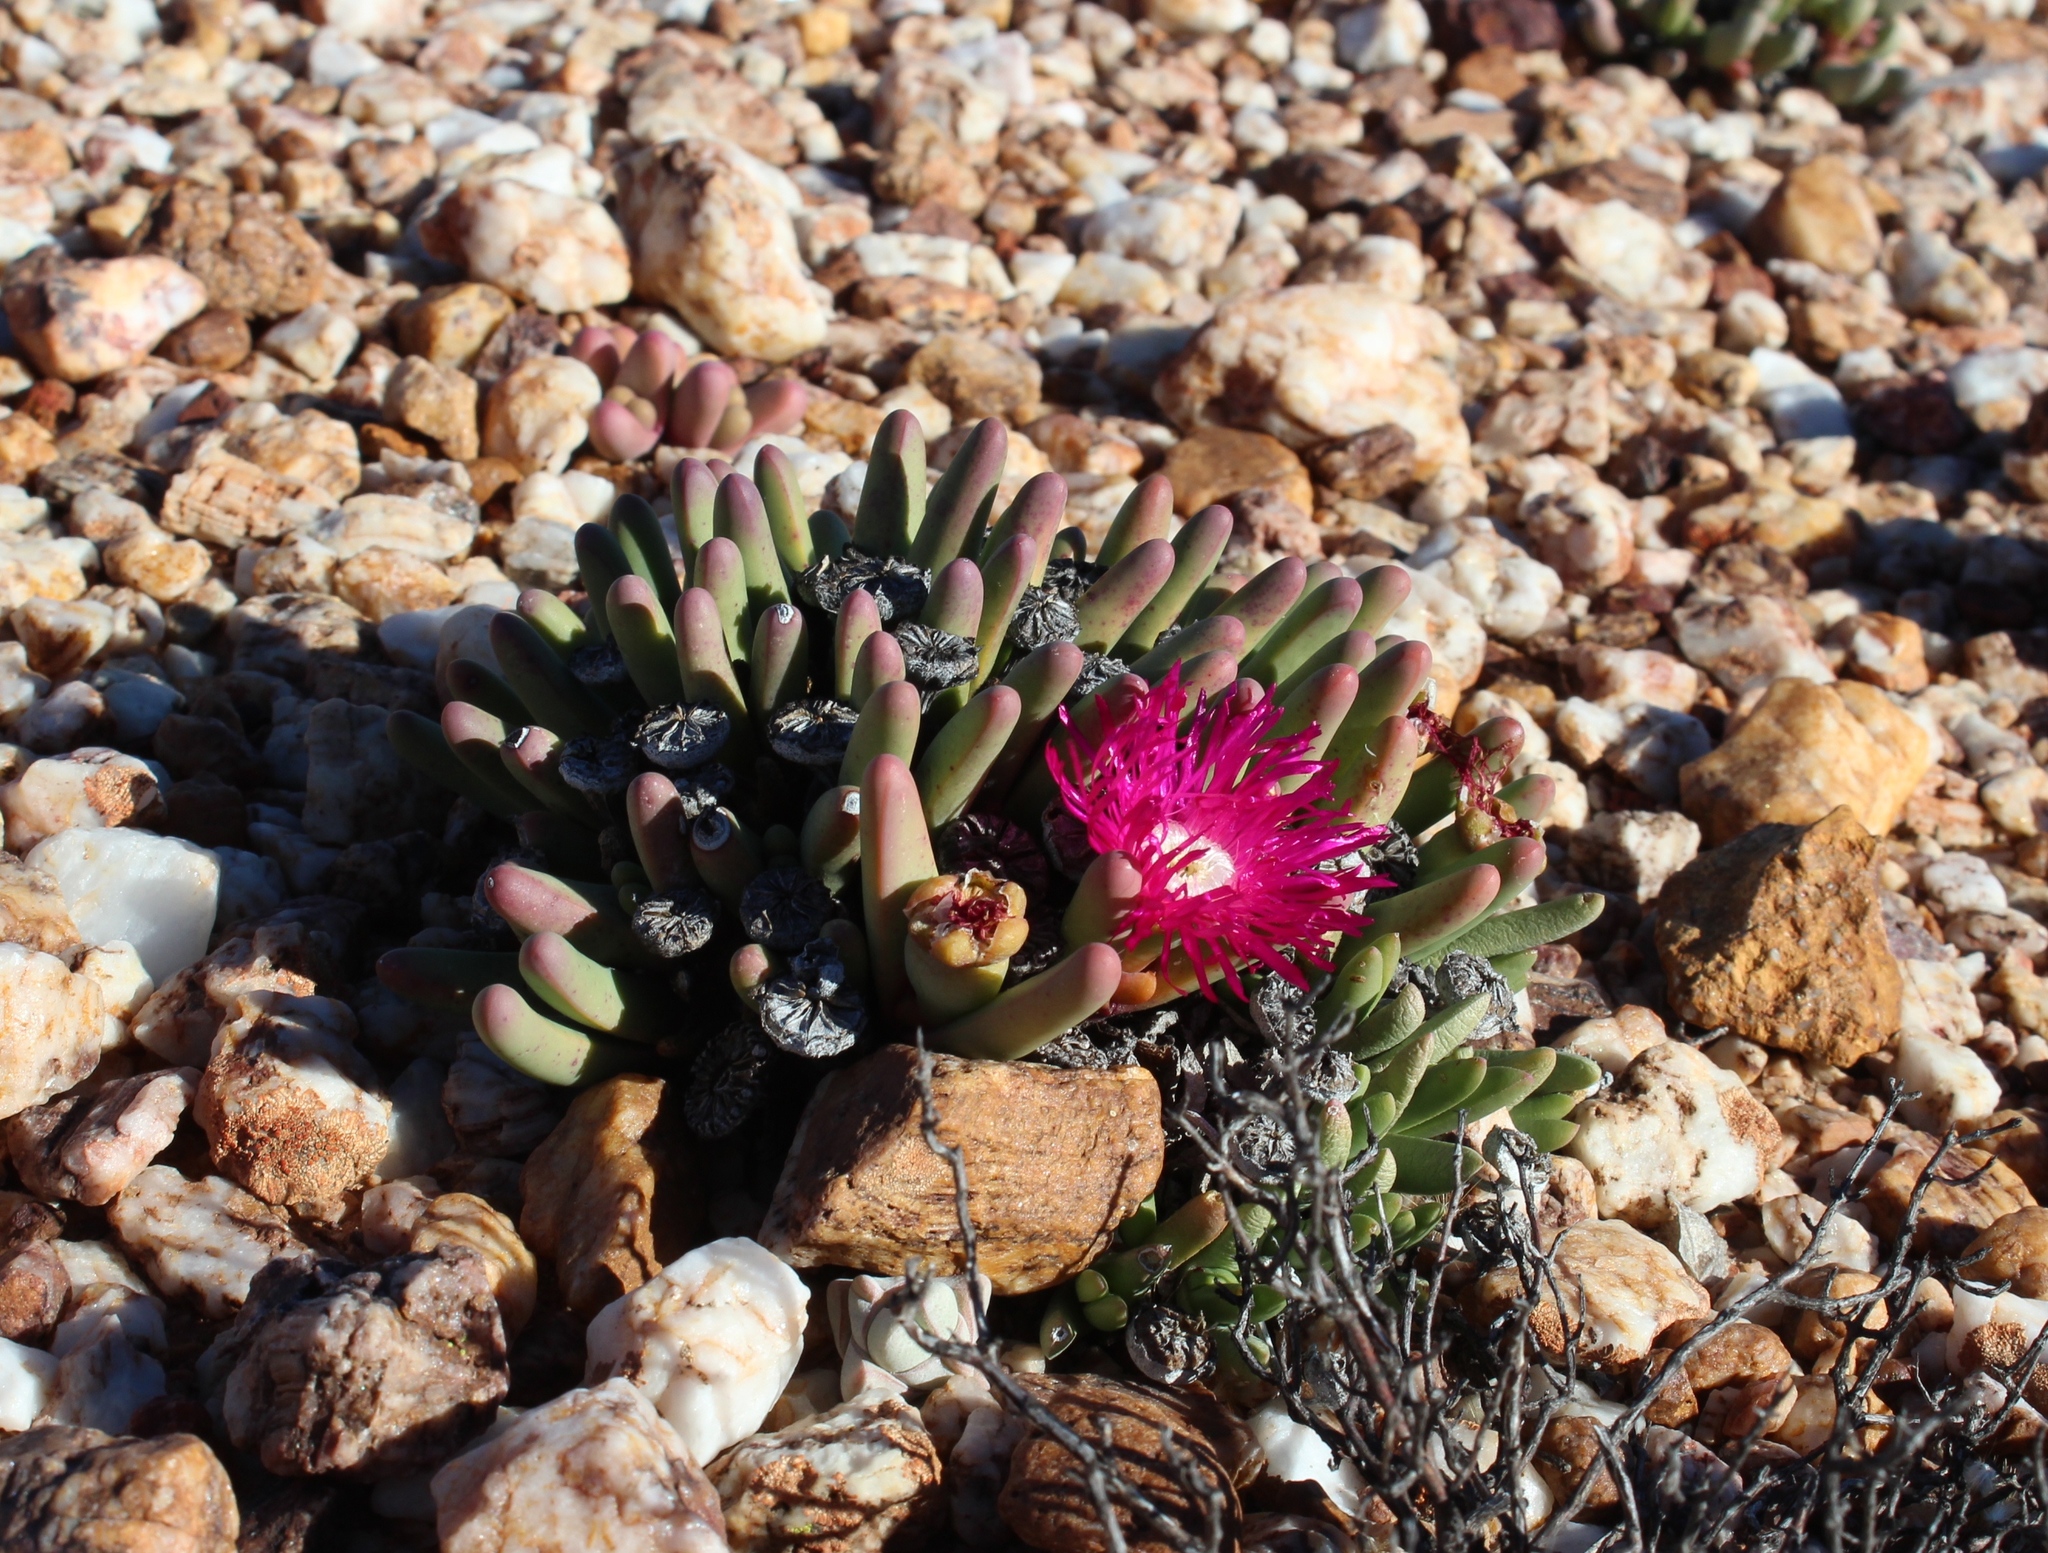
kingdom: Plantae
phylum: Tracheophyta
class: Magnoliopsida
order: Caryophyllales
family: Aizoaceae
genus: Argyroderma
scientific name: Argyroderma fissum
